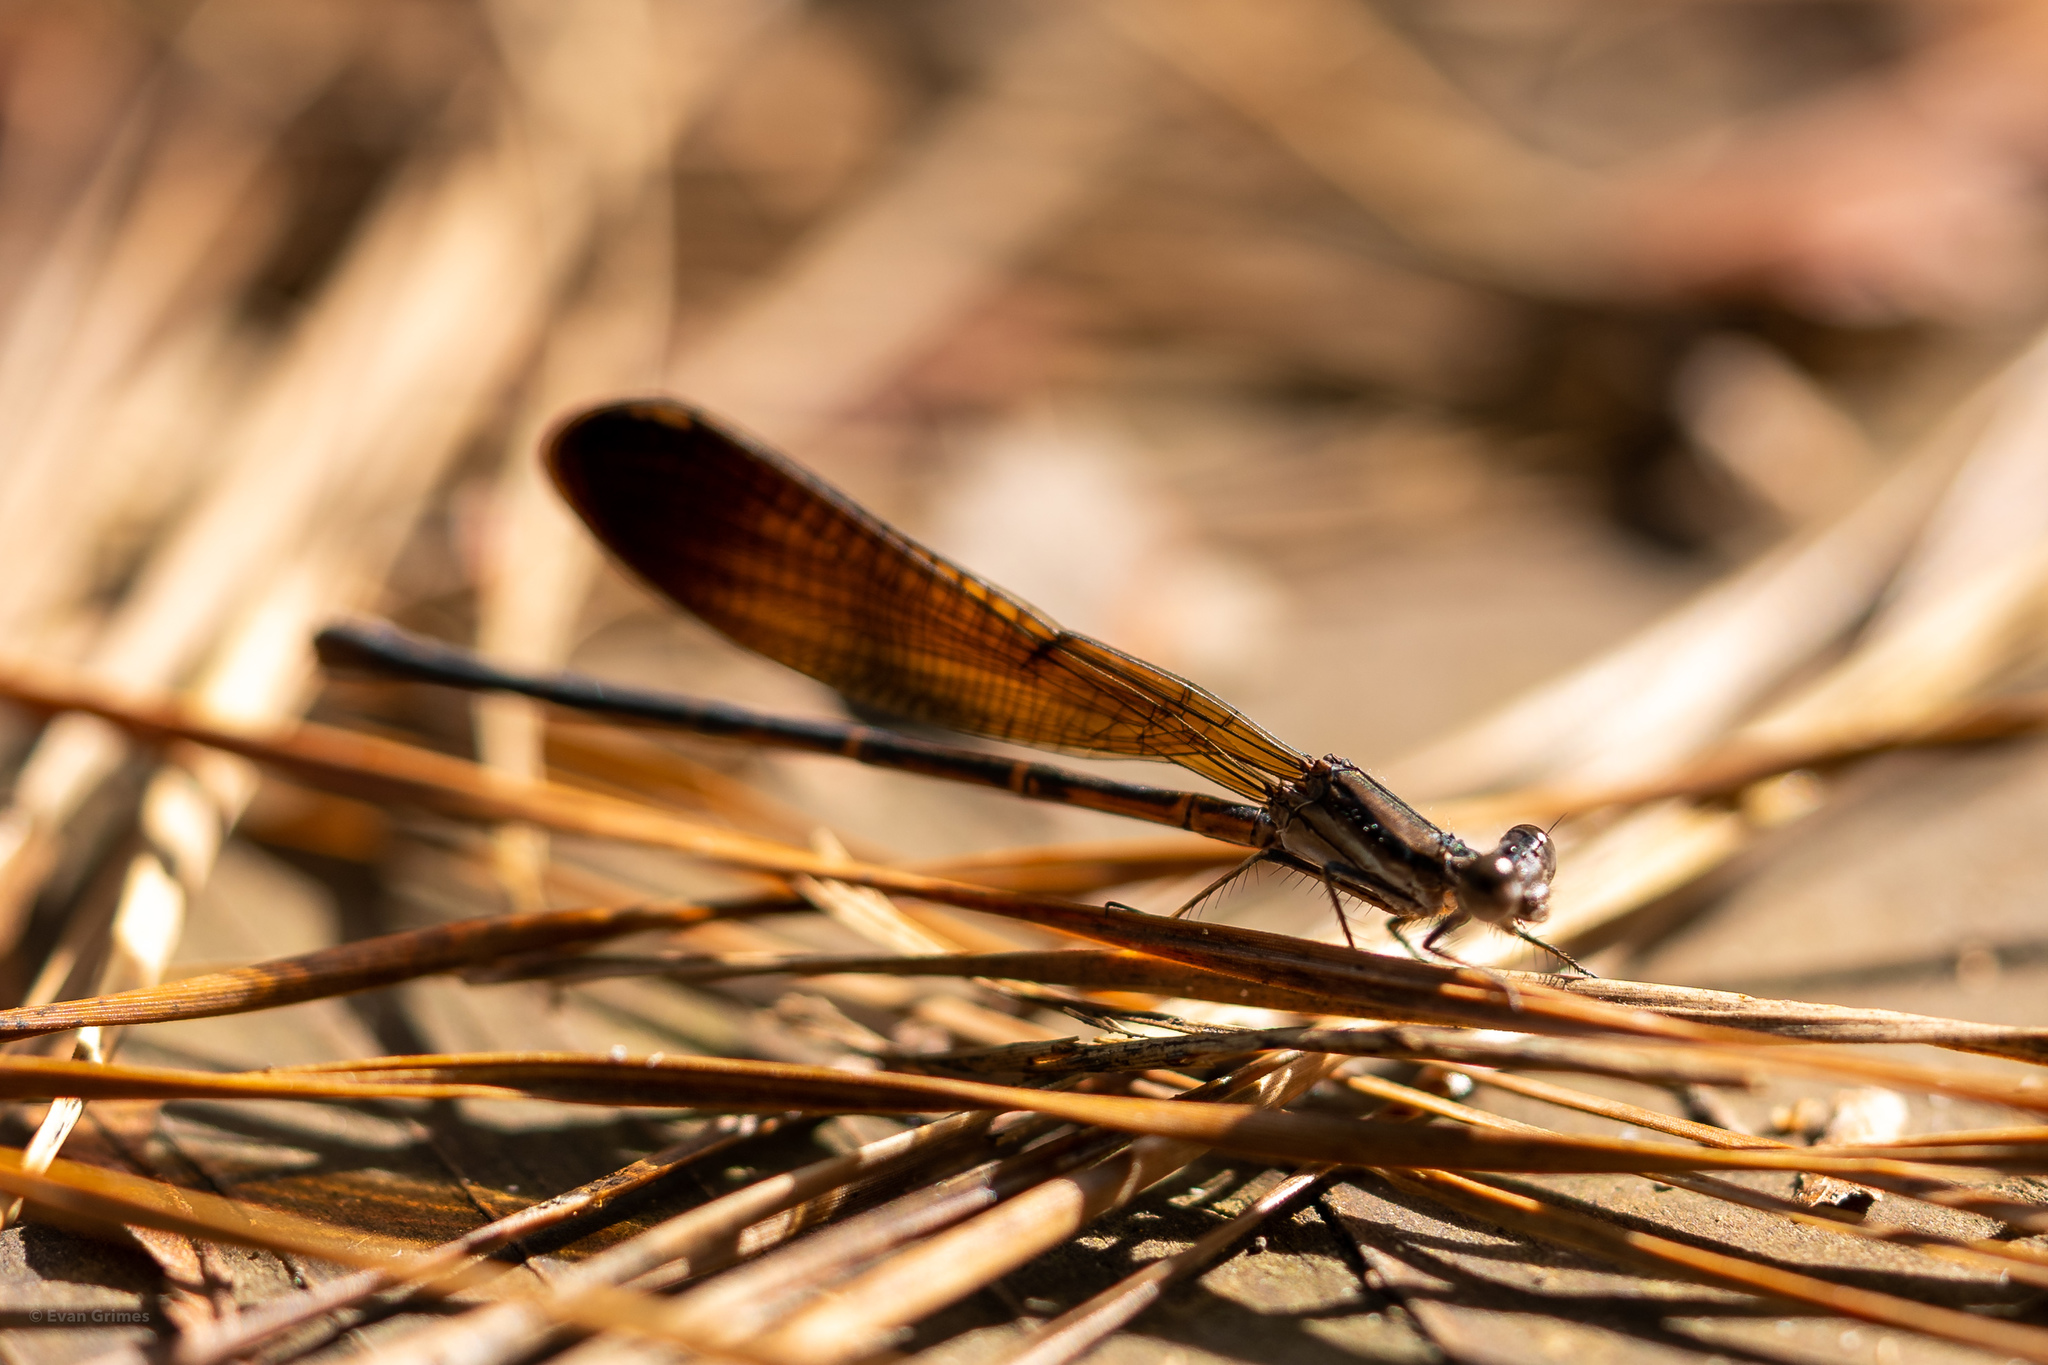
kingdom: Animalia
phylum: Arthropoda
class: Insecta
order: Odonata
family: Coenagrionidae
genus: Argia
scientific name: Argia fumipennis
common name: Variable dancer
